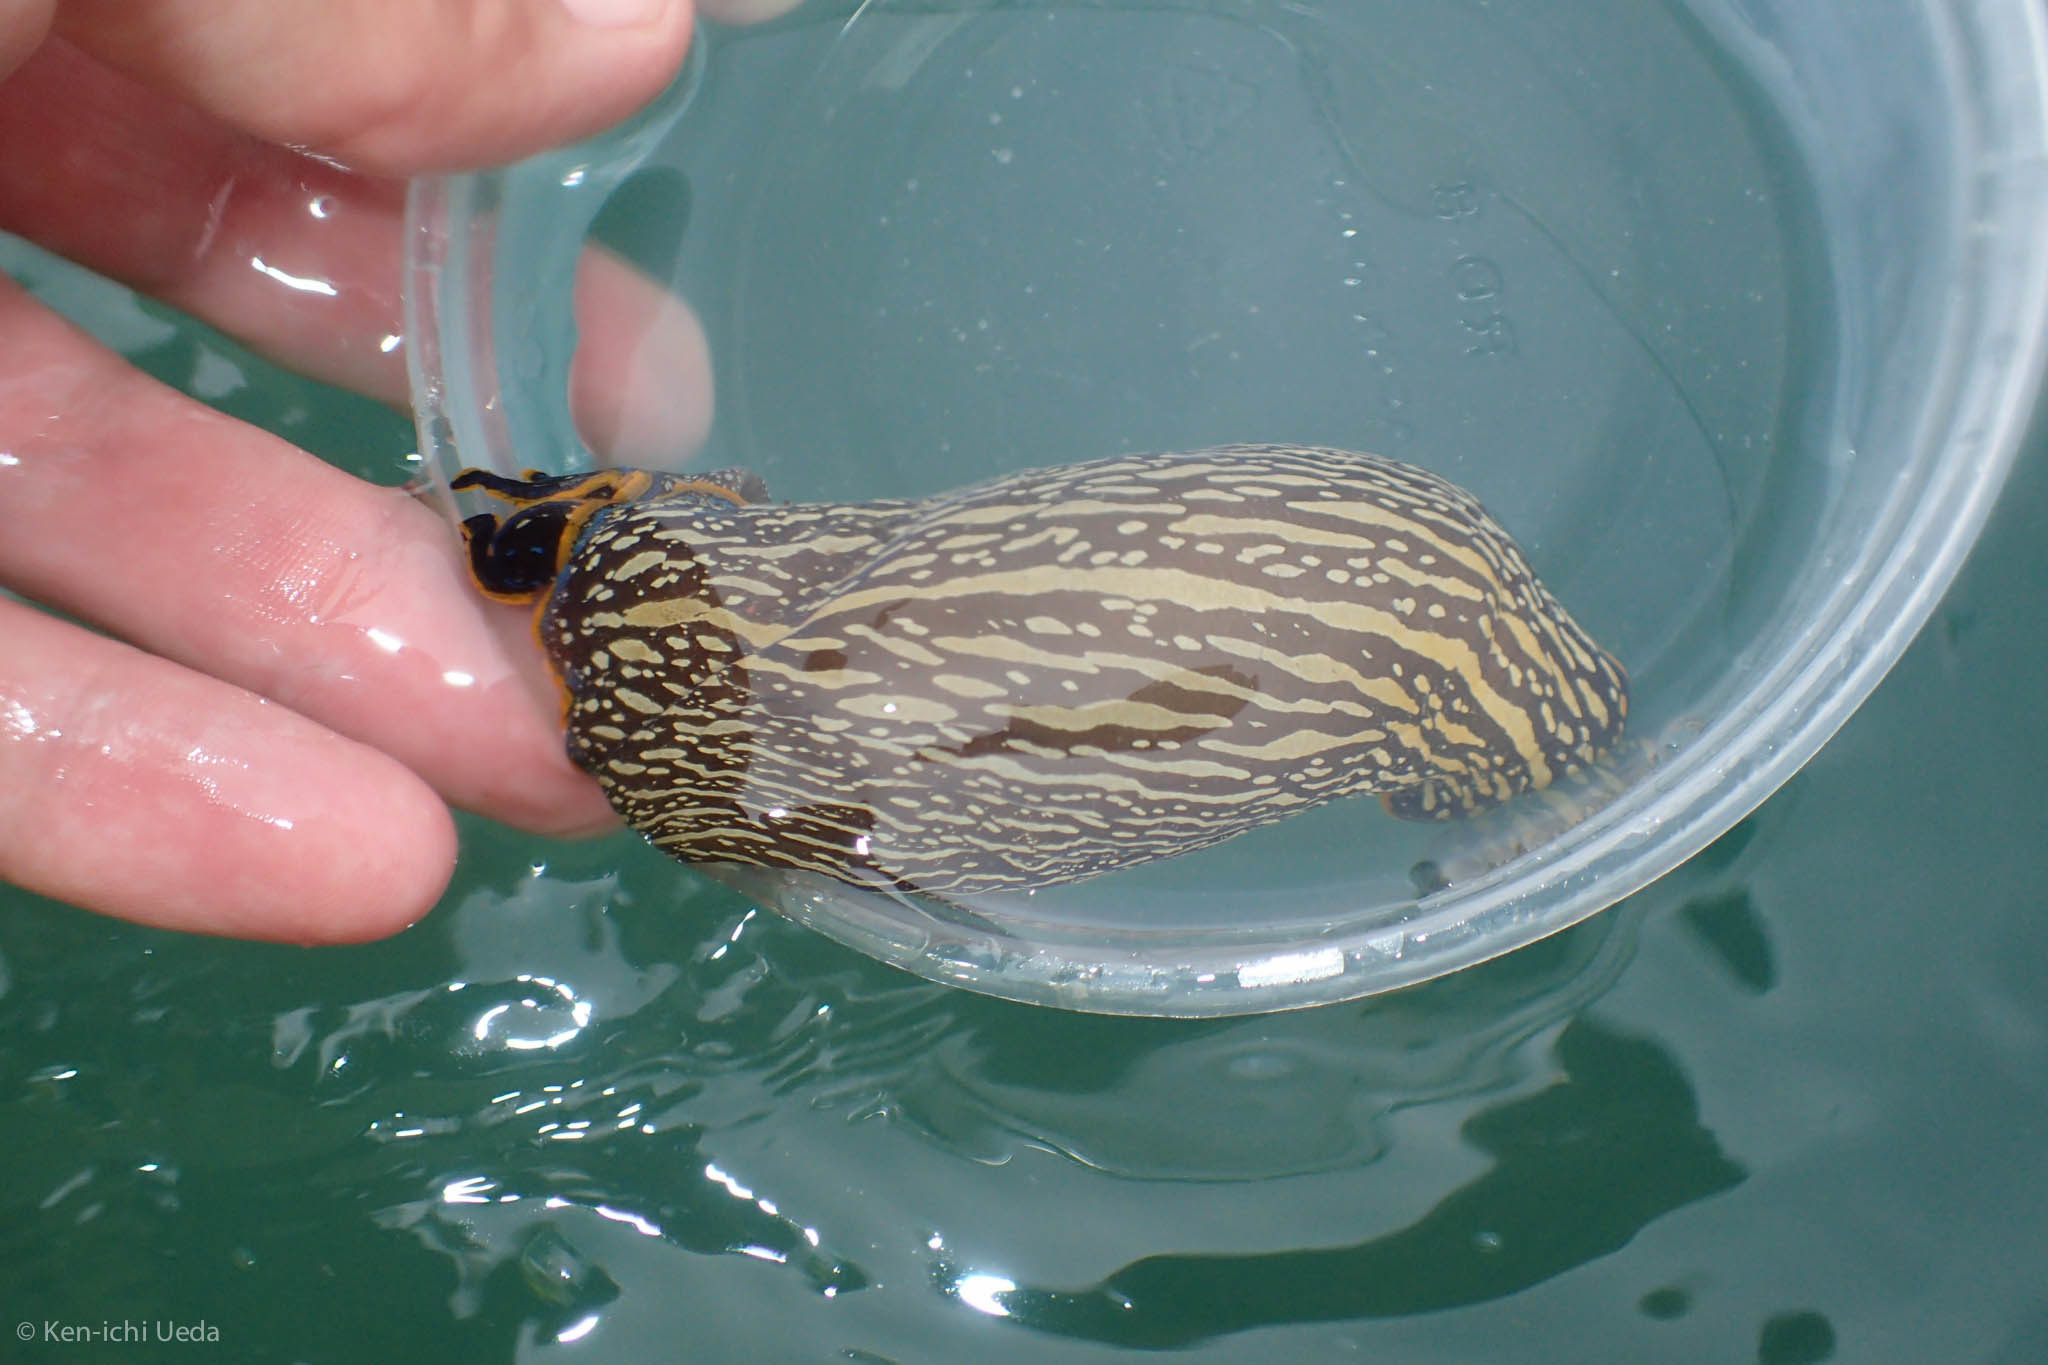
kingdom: Animalia
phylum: Mollusca
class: Gastropoda
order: Cephalaspidea
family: Aglajidae
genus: Navanax
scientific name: Navanax inermis
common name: California aglaja
